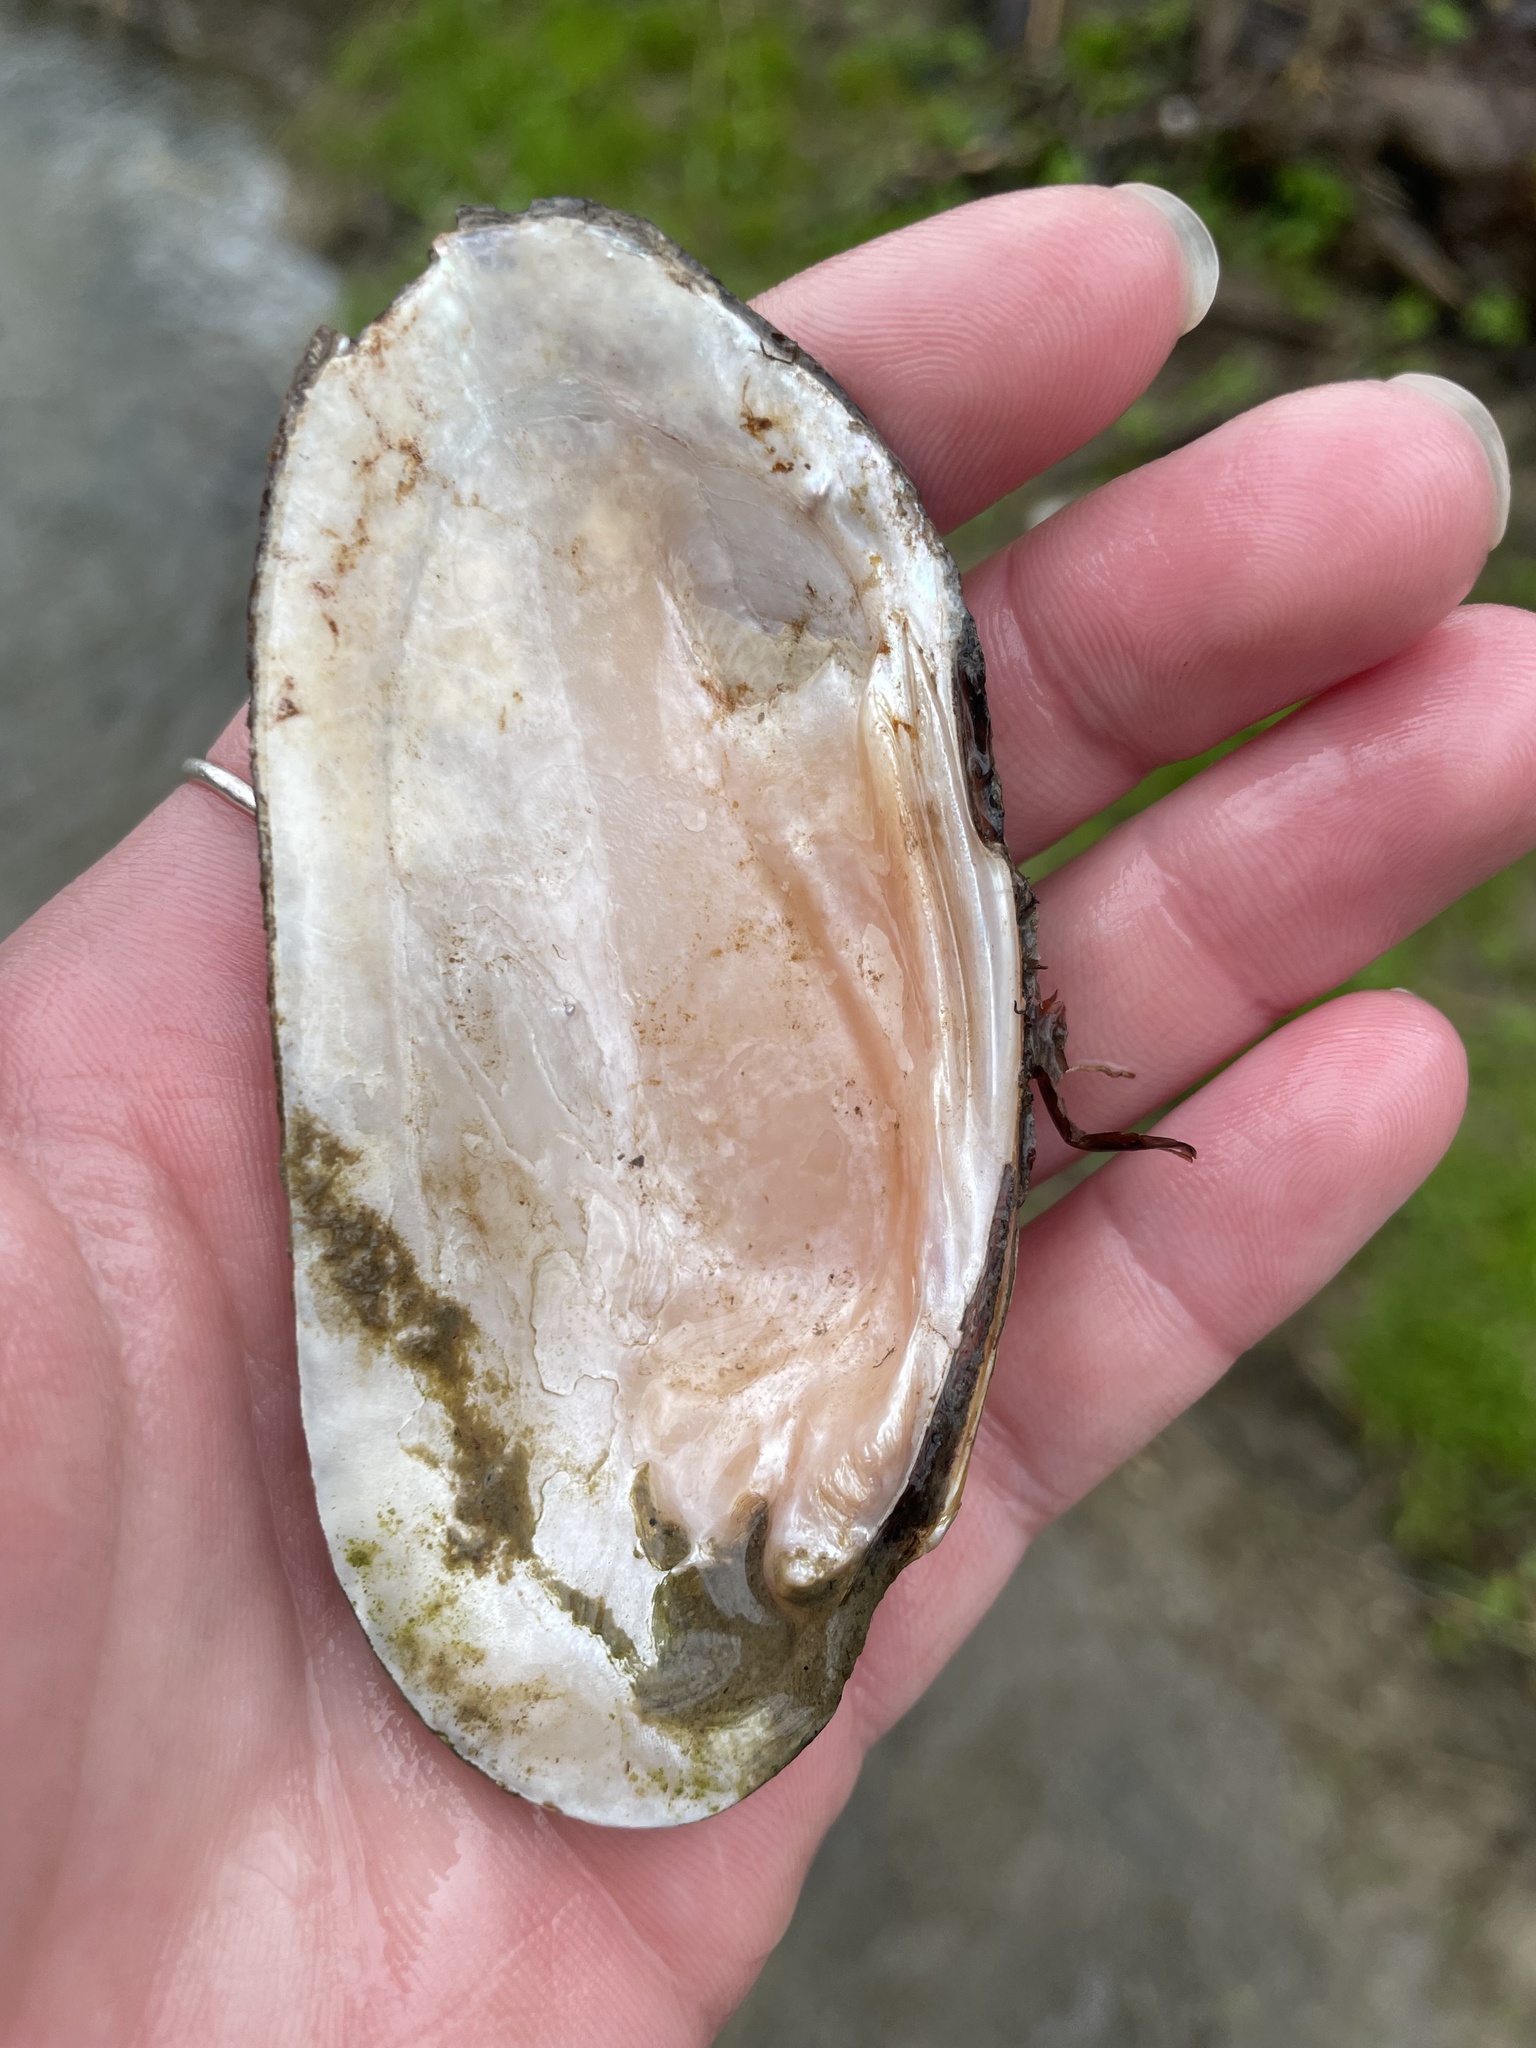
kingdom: Animalia
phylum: Mollusca
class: Bivalvia
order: Unionida
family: Unionidae
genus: Eurynia
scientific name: Eurynia dilatata
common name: Spike
